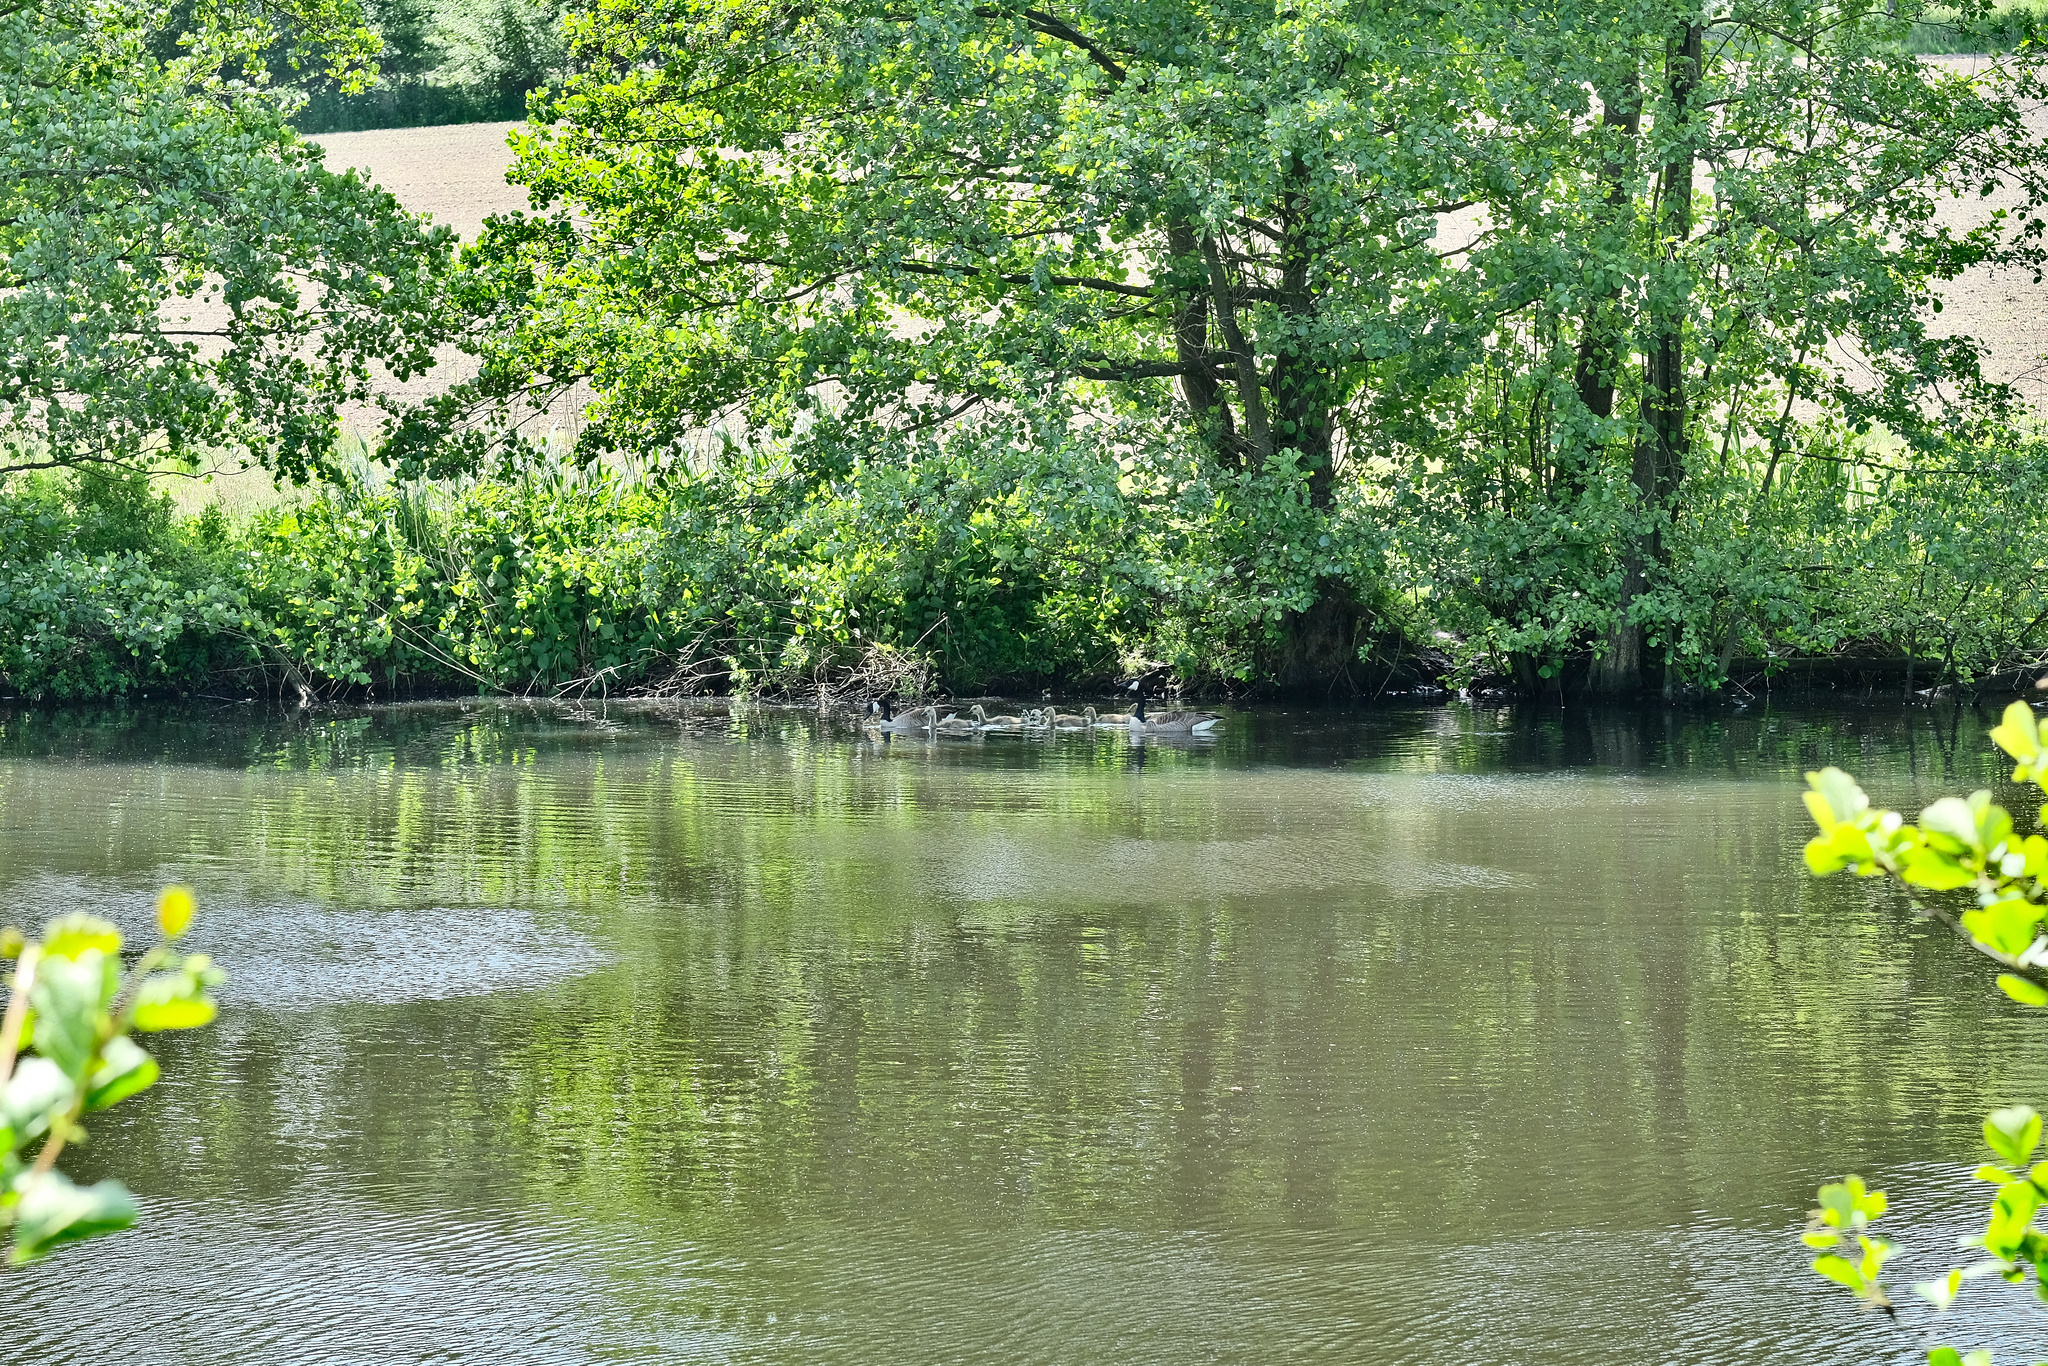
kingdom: Animalia
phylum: Chordata
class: Aves
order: Anseriformes
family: Anatidae
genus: Branta
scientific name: Branta canadensis
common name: Canada goose
